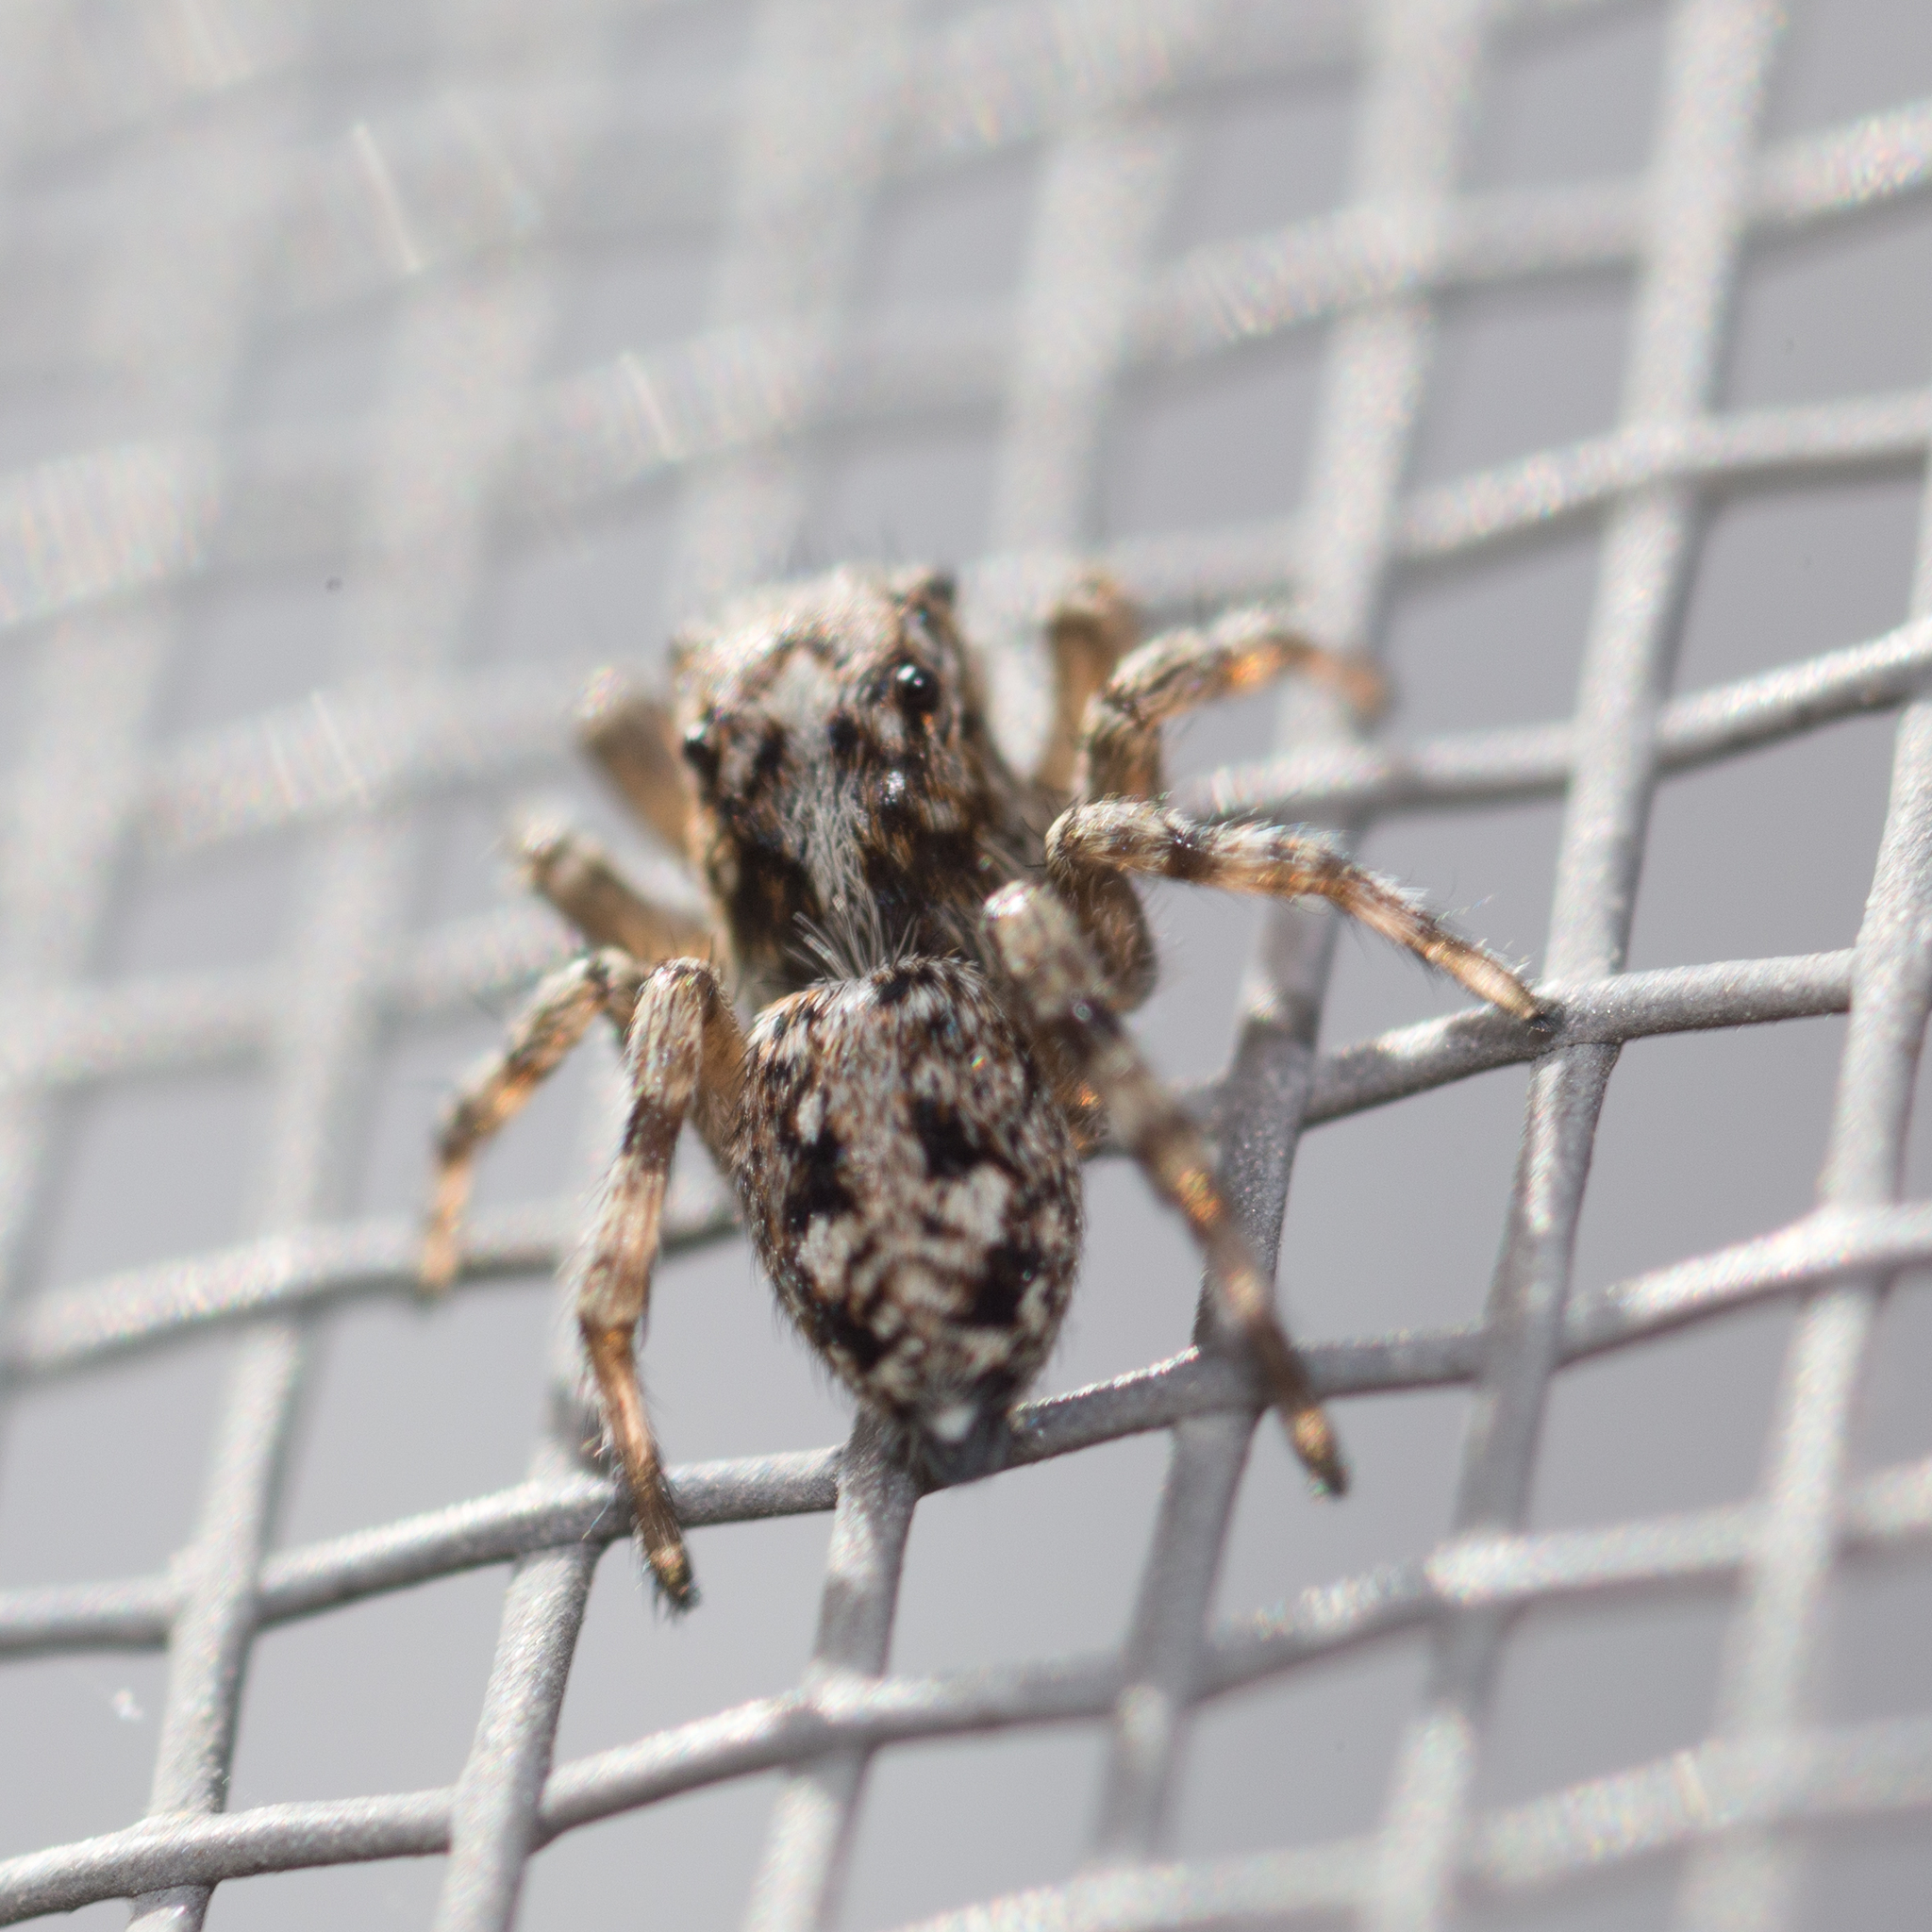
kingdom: Animalia
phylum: Arthropoda
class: Arachnida
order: Araneae
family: Salticidae
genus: Attulus
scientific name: Attulus terebratus
